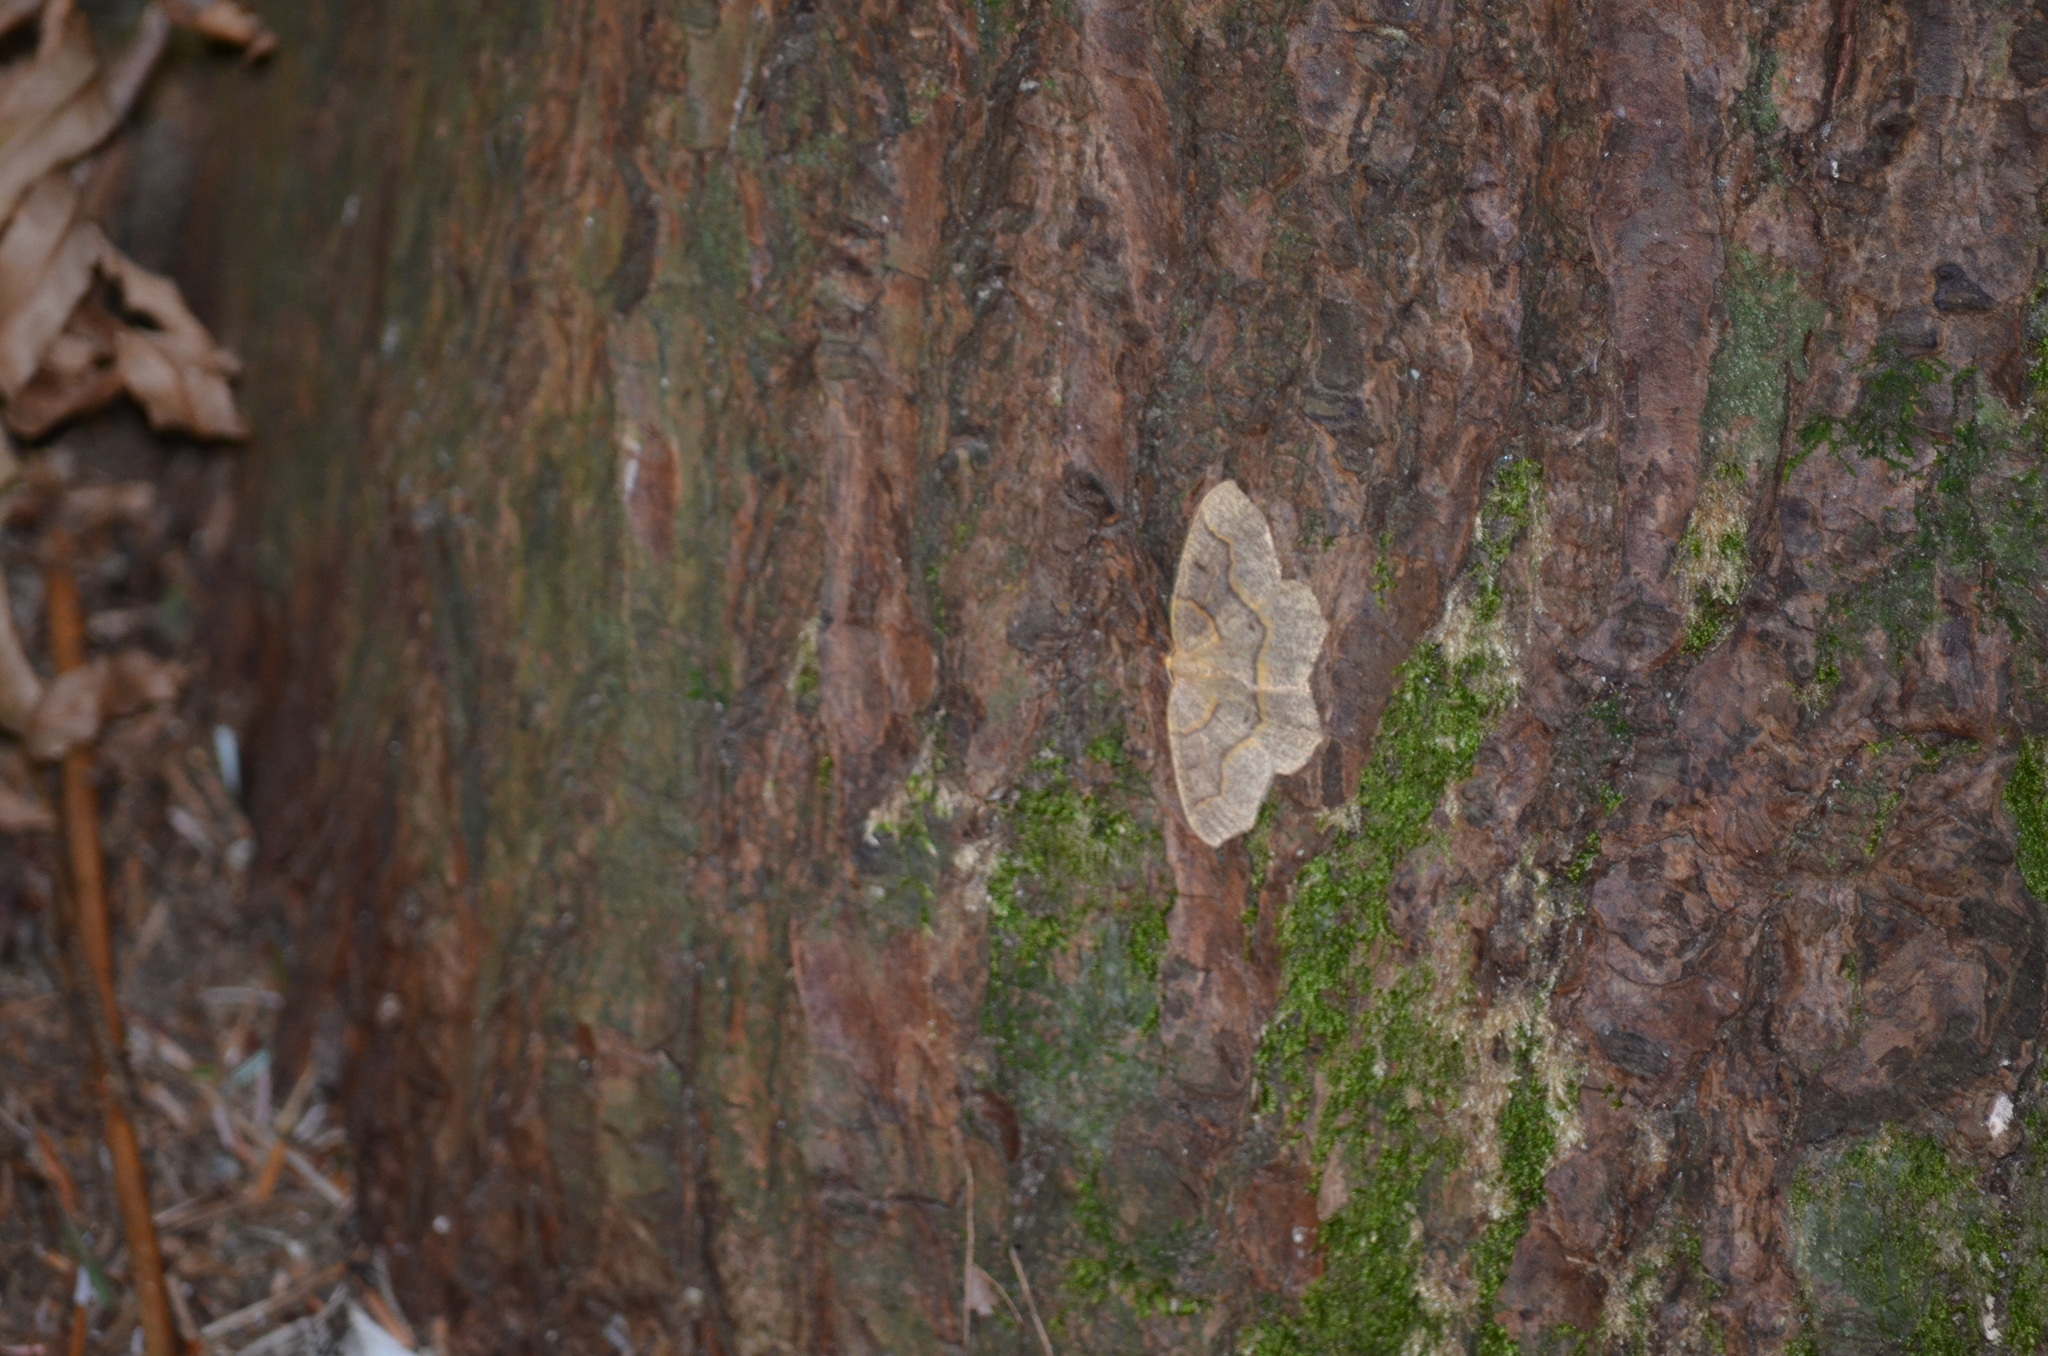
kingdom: Animalia
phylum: Arthropoda
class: Insecta
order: Lepidoptera
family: Geometridae
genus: Lambdina
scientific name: Lambdina fiscellaria
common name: Hemlock looper
